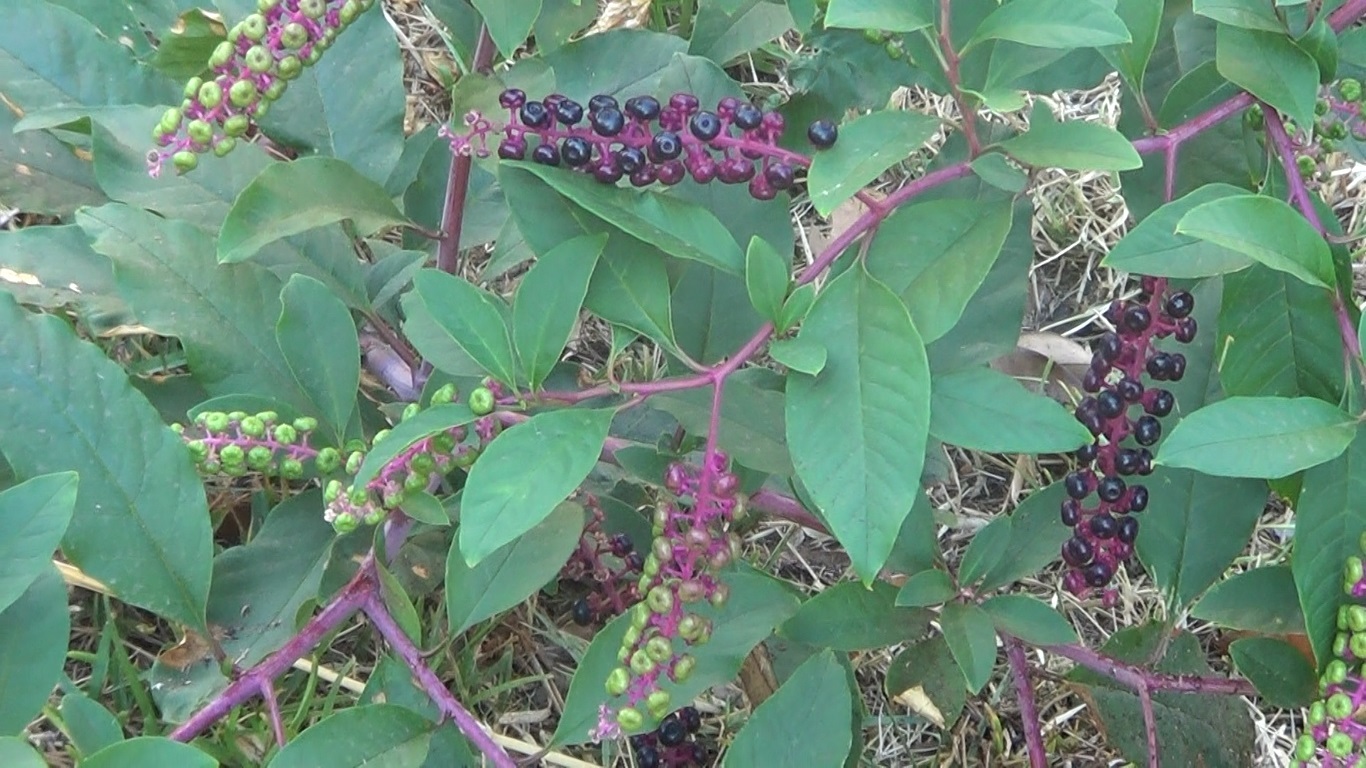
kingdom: Plantae
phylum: Tracheophyta
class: Magnoliopsida
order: Caryophyllales
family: Phytolaccaceae
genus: Phytolacca
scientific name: Phytolacca americana
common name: American pokeweed
